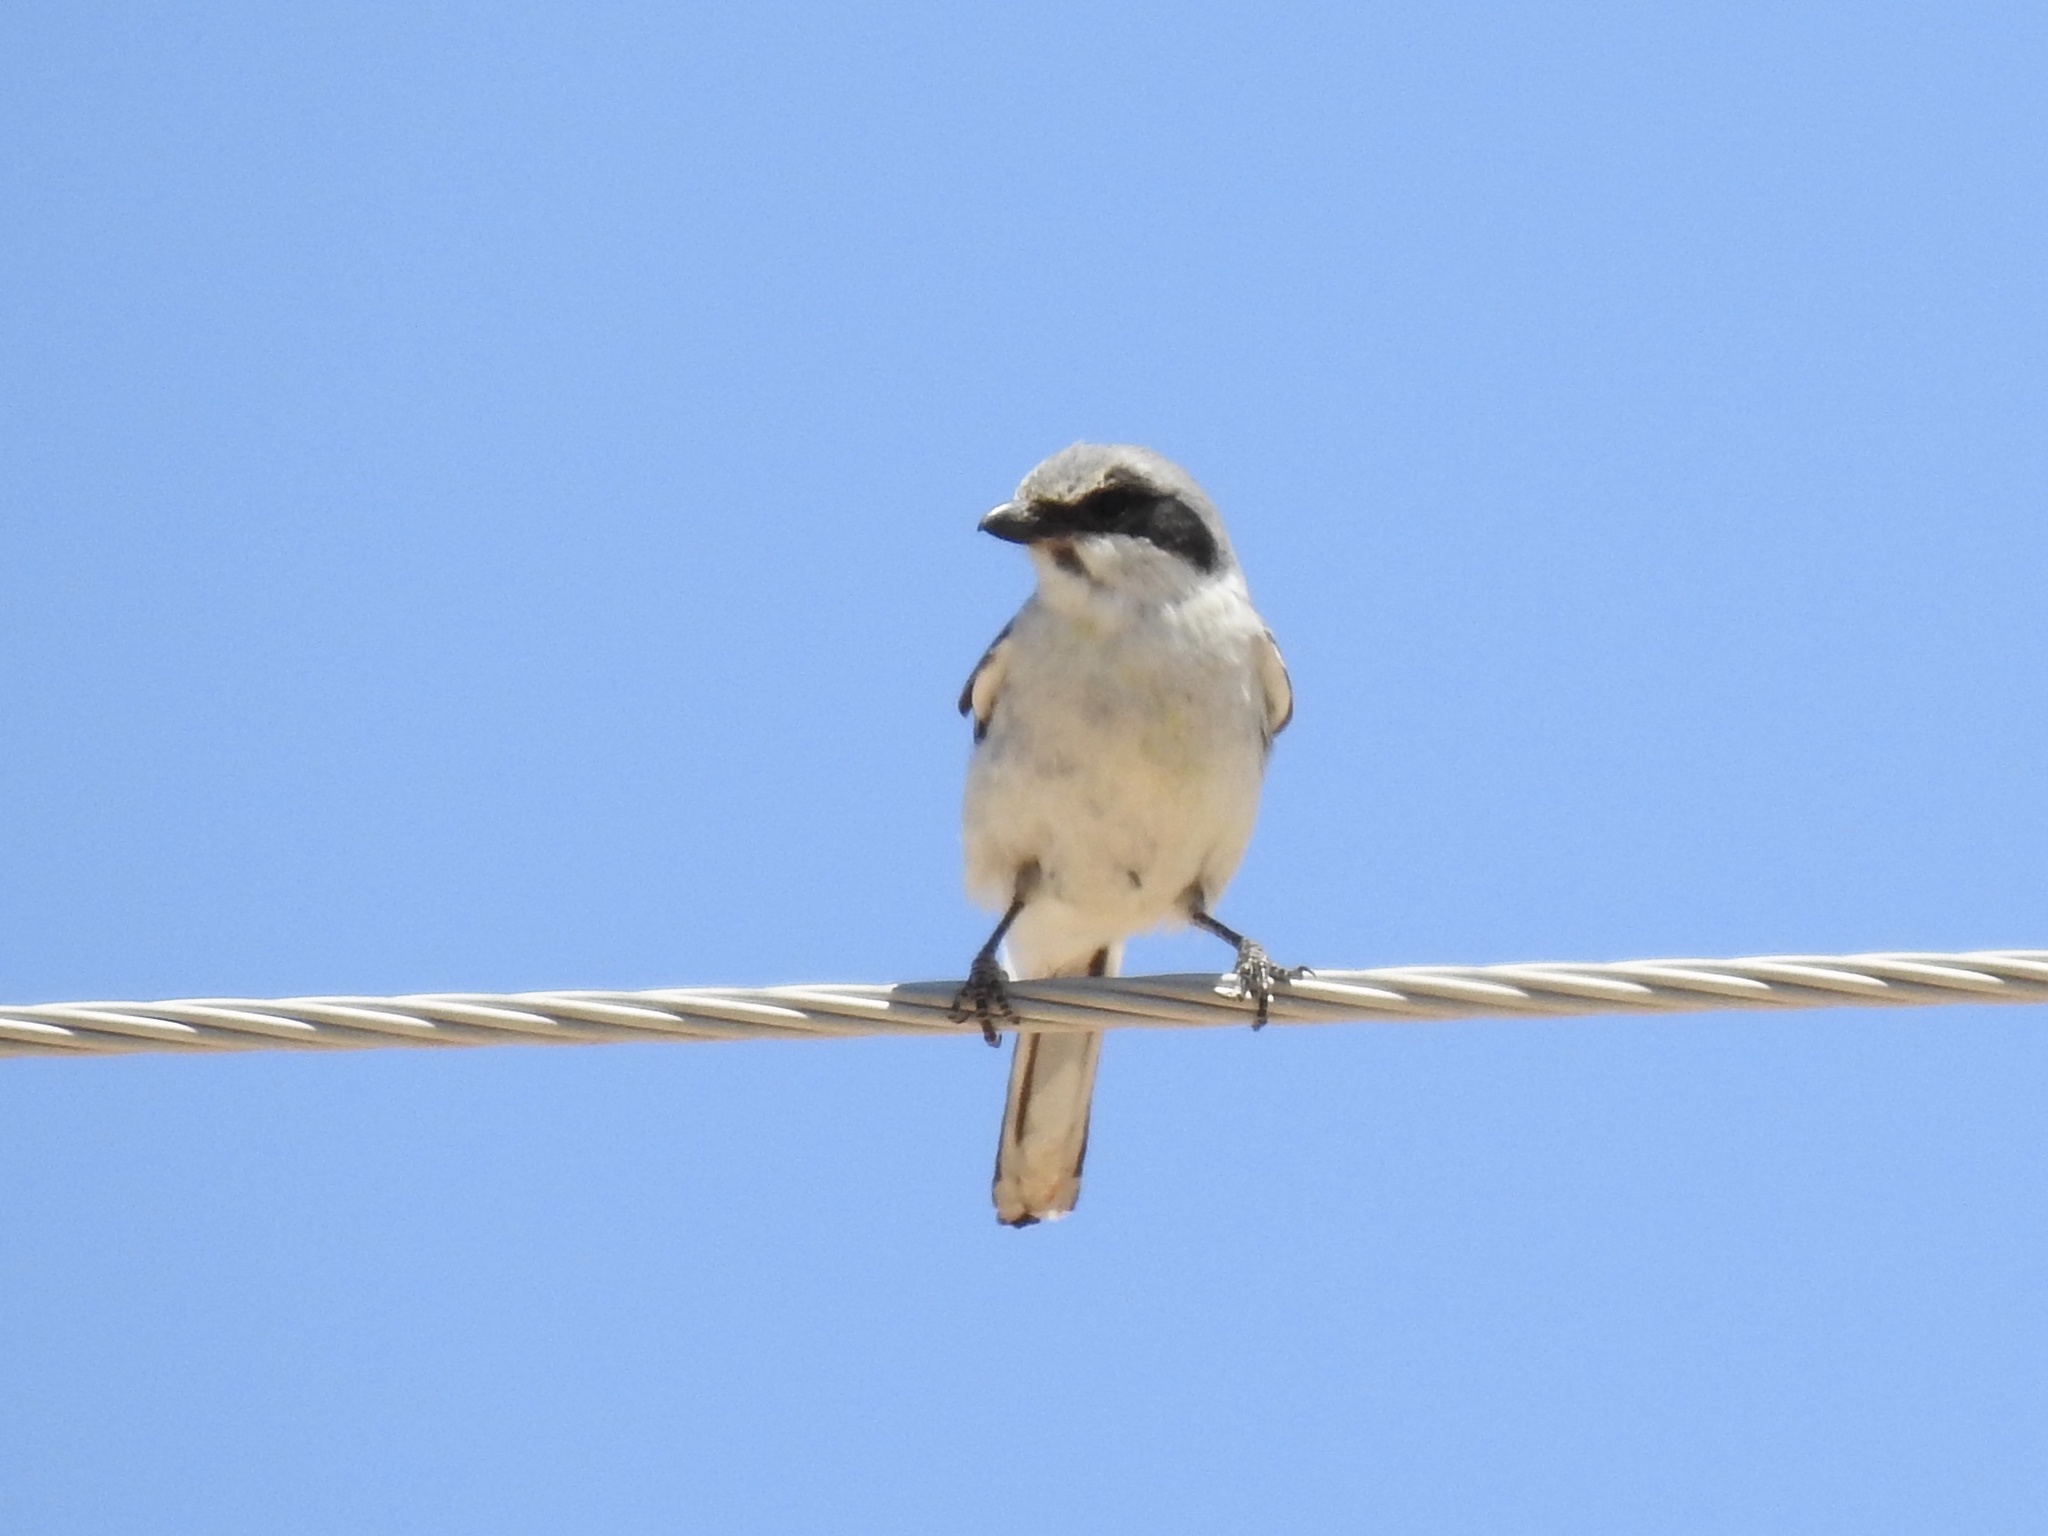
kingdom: Animalia
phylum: Chordata
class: Aves
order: Passeriformes
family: Laniidae
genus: Lanius
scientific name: Lanius ludovicianus
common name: Loggerhead shrike
